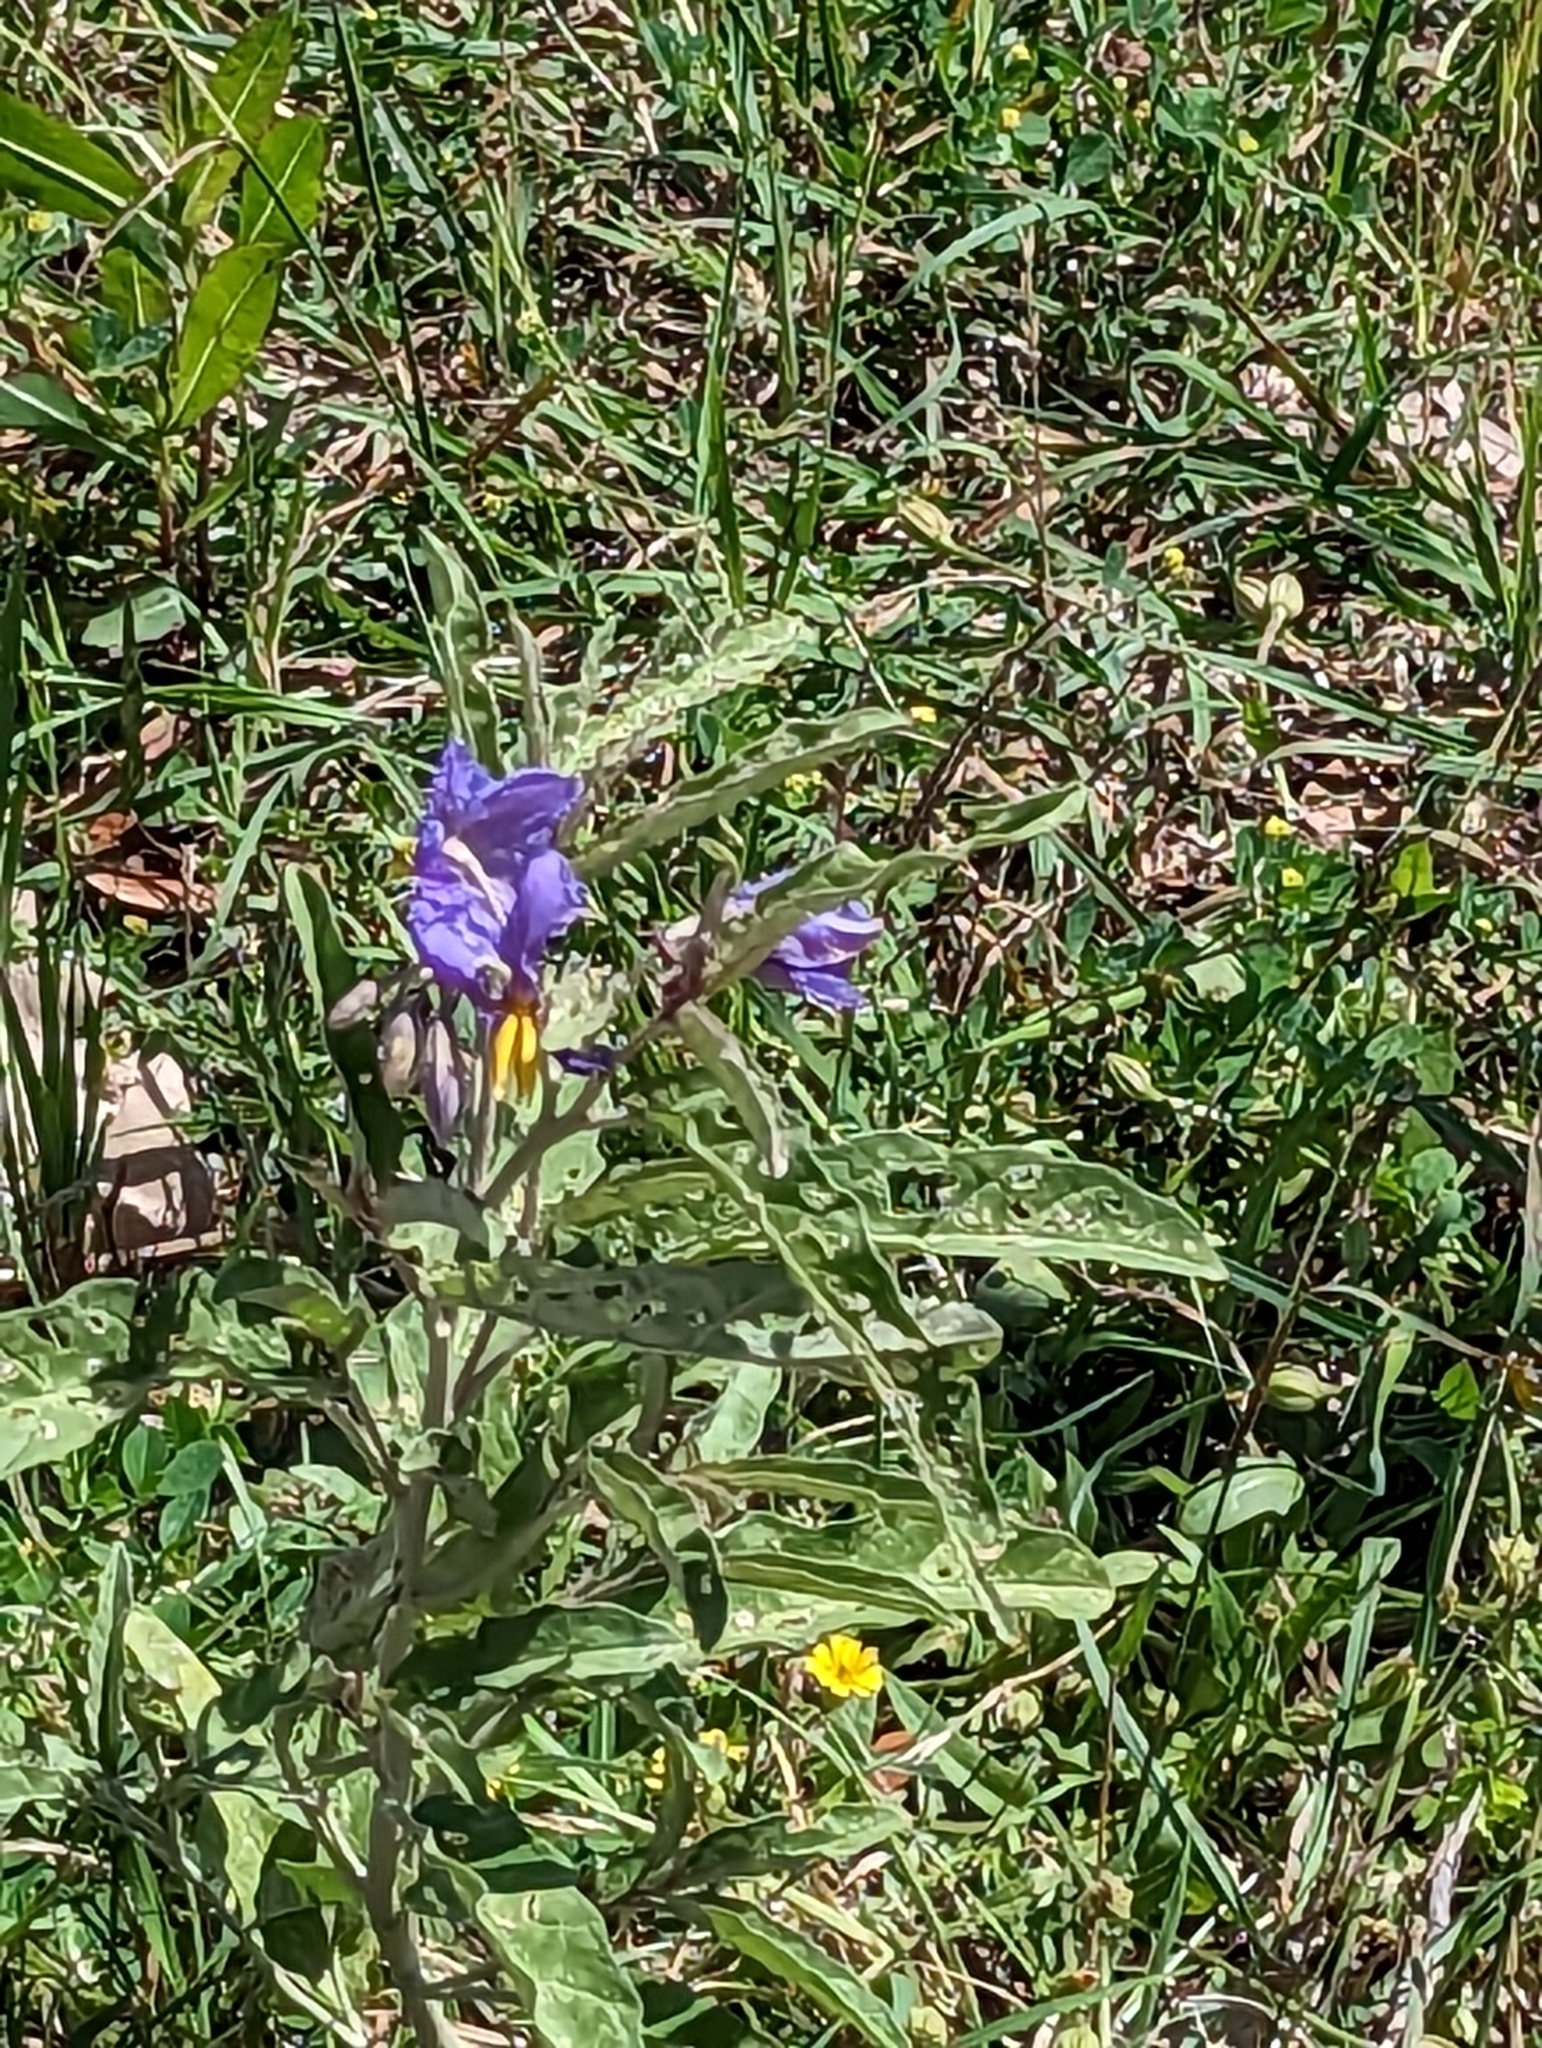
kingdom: Plantae
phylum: Tracheophyta
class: Magnoliopsida
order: Solanales
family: Solanaceae
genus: Solanum
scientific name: Solanum elaeagnifolium
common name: Silverleaf nightshade
